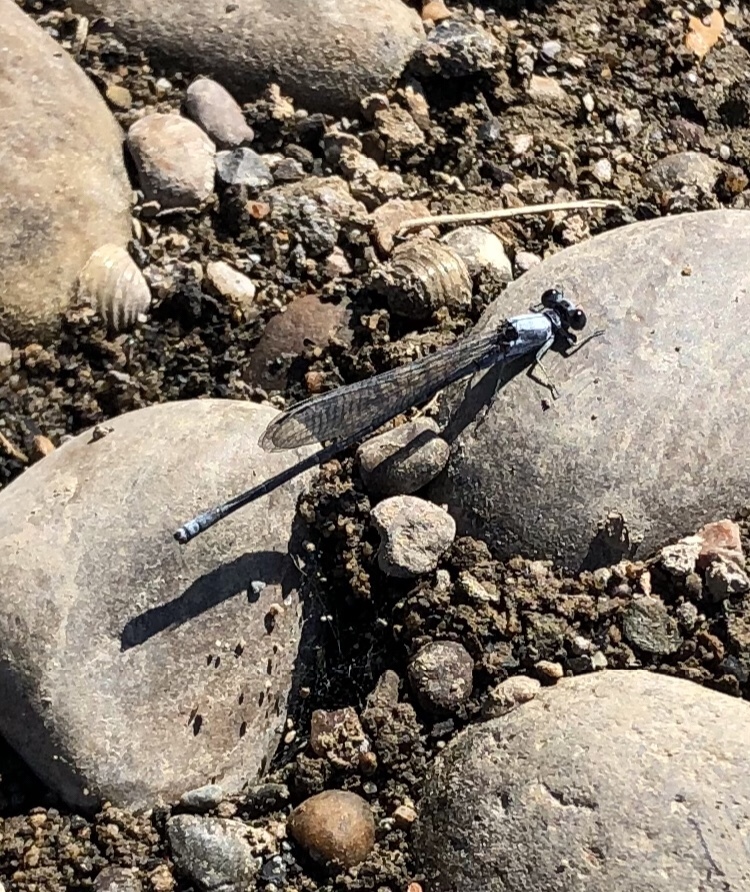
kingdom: Animalia
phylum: Arthropoda
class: Insecta
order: Odonata
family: Coenagrionidae
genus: Argia
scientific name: Argia moesta
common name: Powdered dancer
